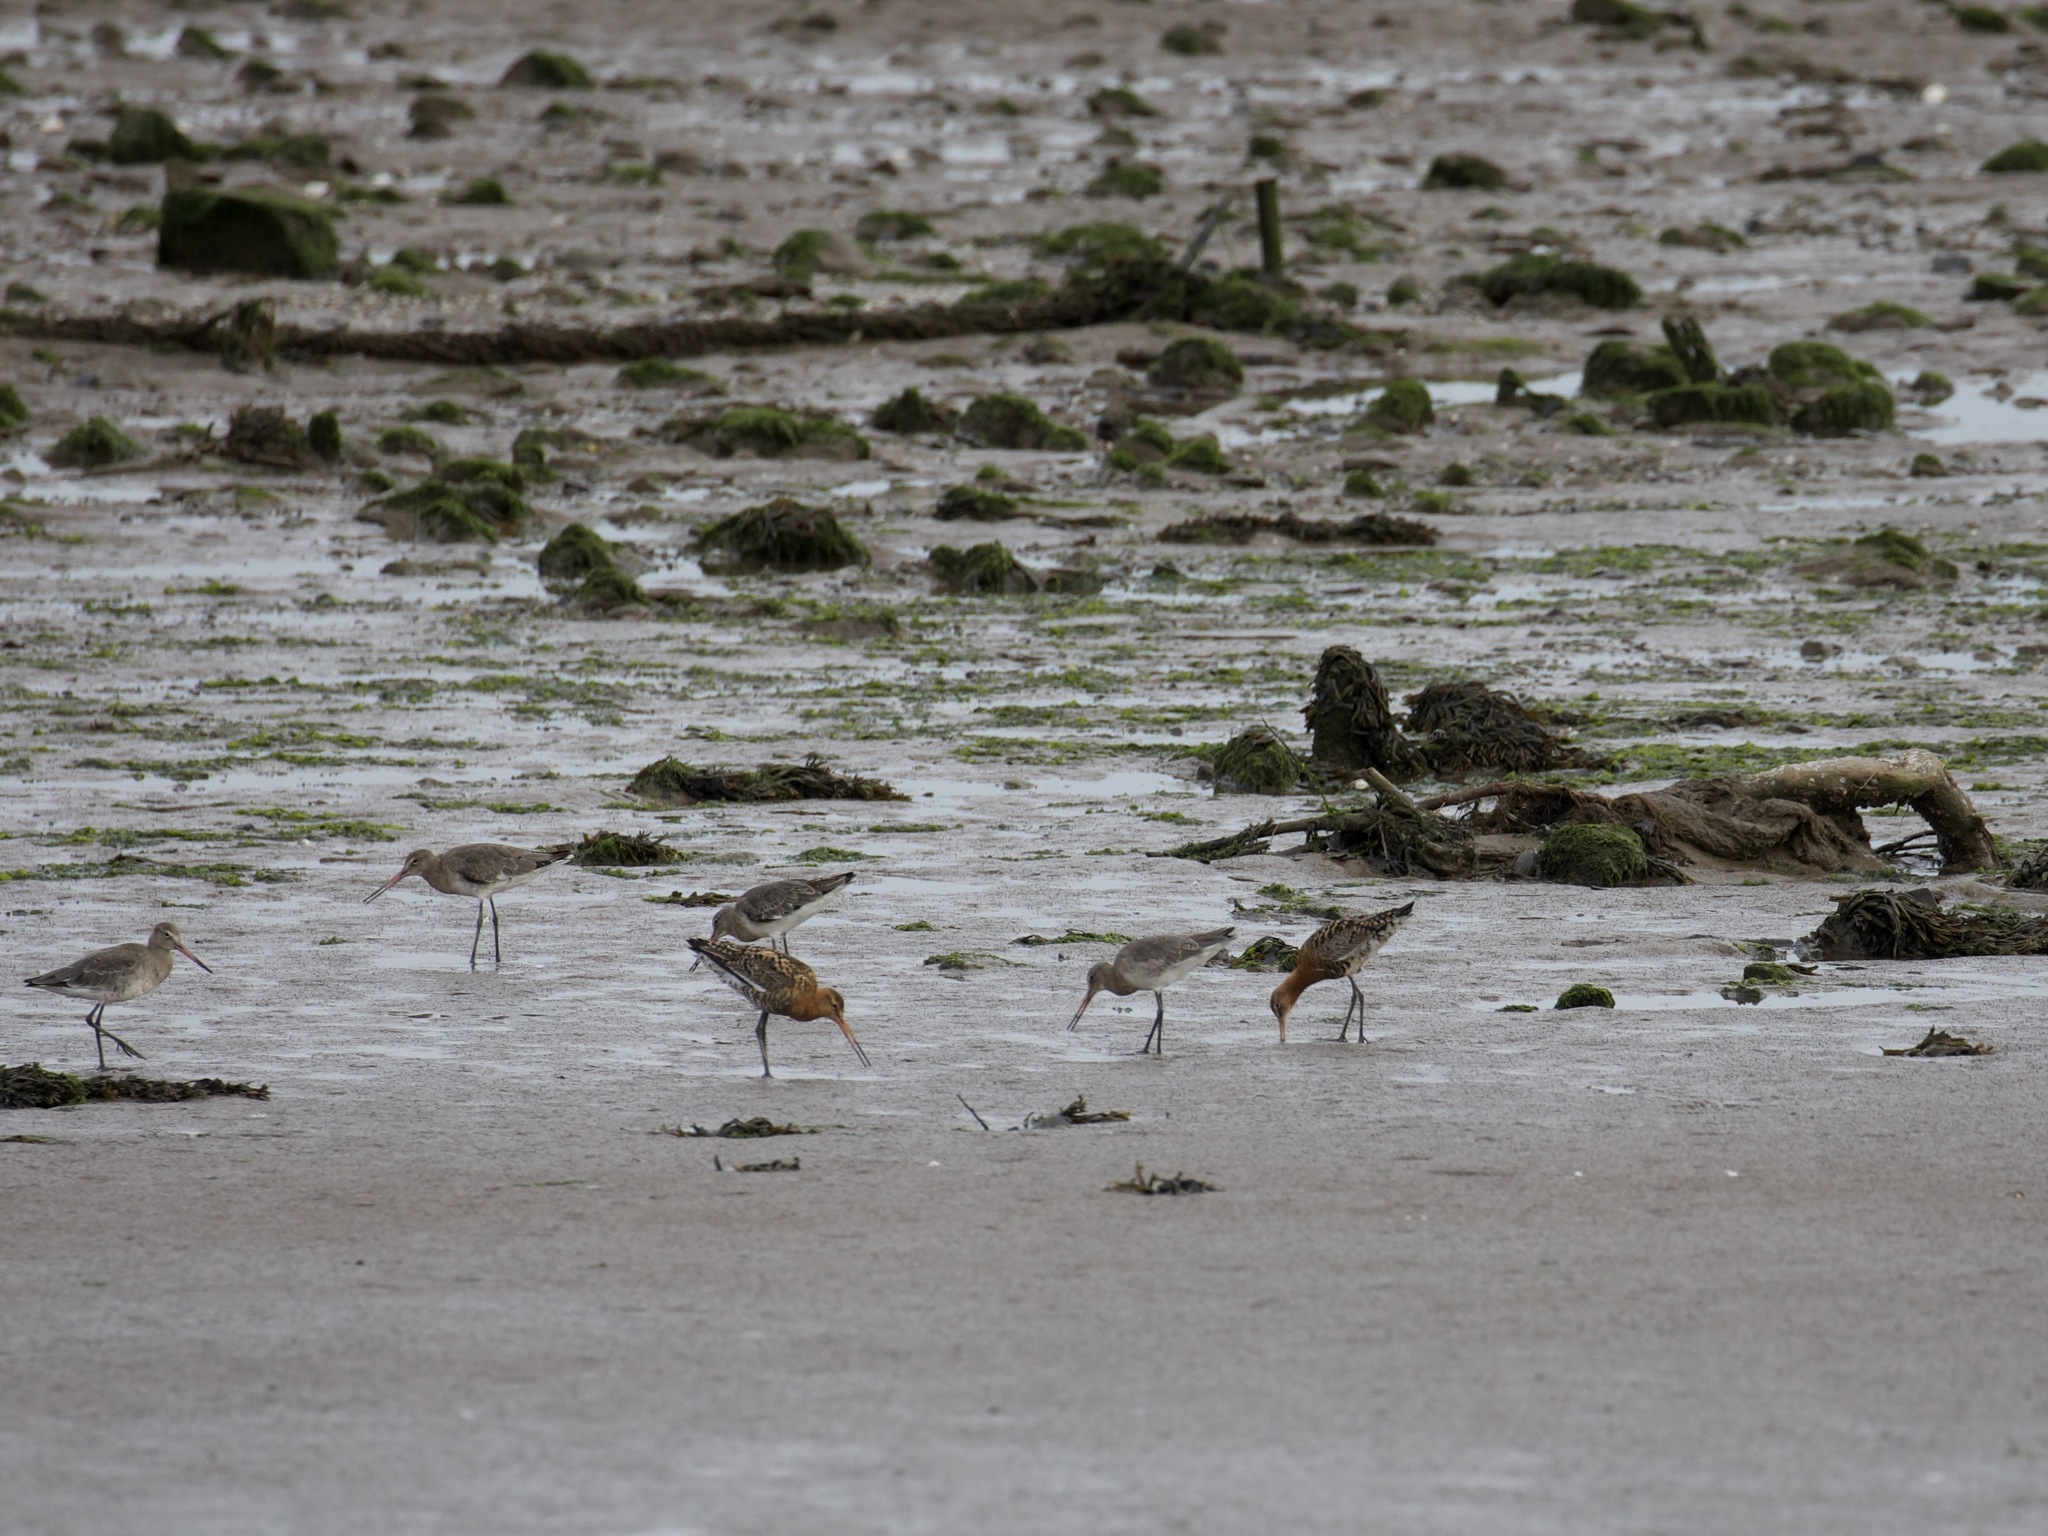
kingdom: Animalia
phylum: Chordata
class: Aves
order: Charadriiformes
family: Scolopacidae
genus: Limosa
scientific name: Limosa limosa
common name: Black-tailed godwit
